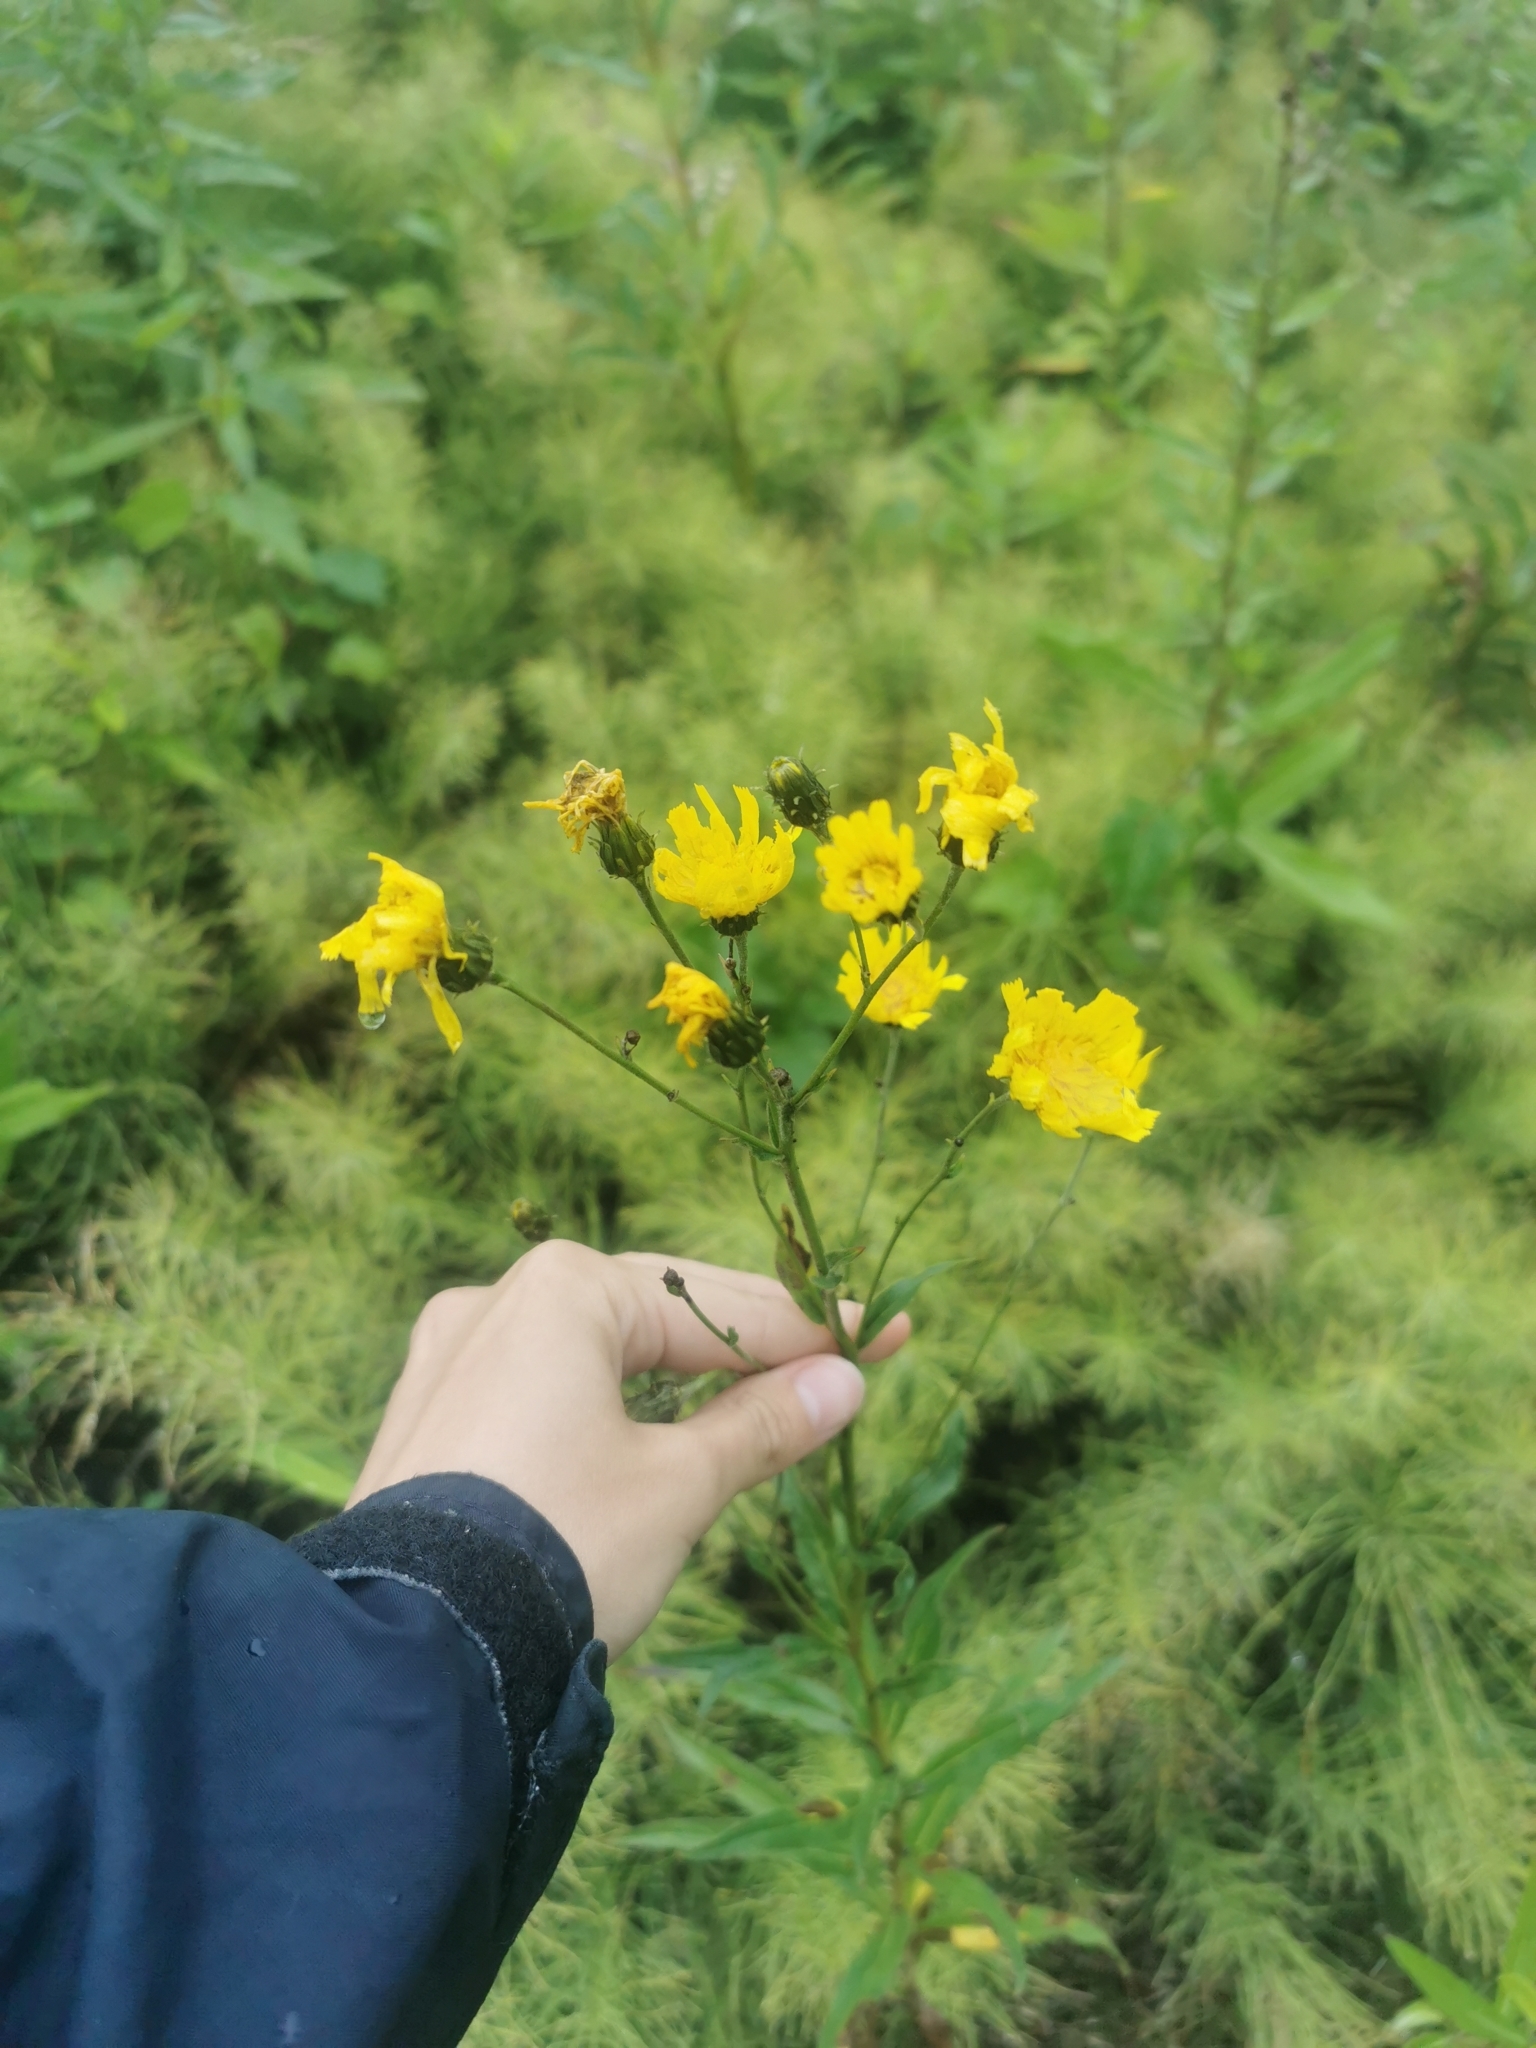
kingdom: Plantae
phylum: Tracheophyta
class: Magnoliopsida
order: Asterales
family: Asteraceae
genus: Hieracium
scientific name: Hieracium umbellatum
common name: Northern hawkweed
